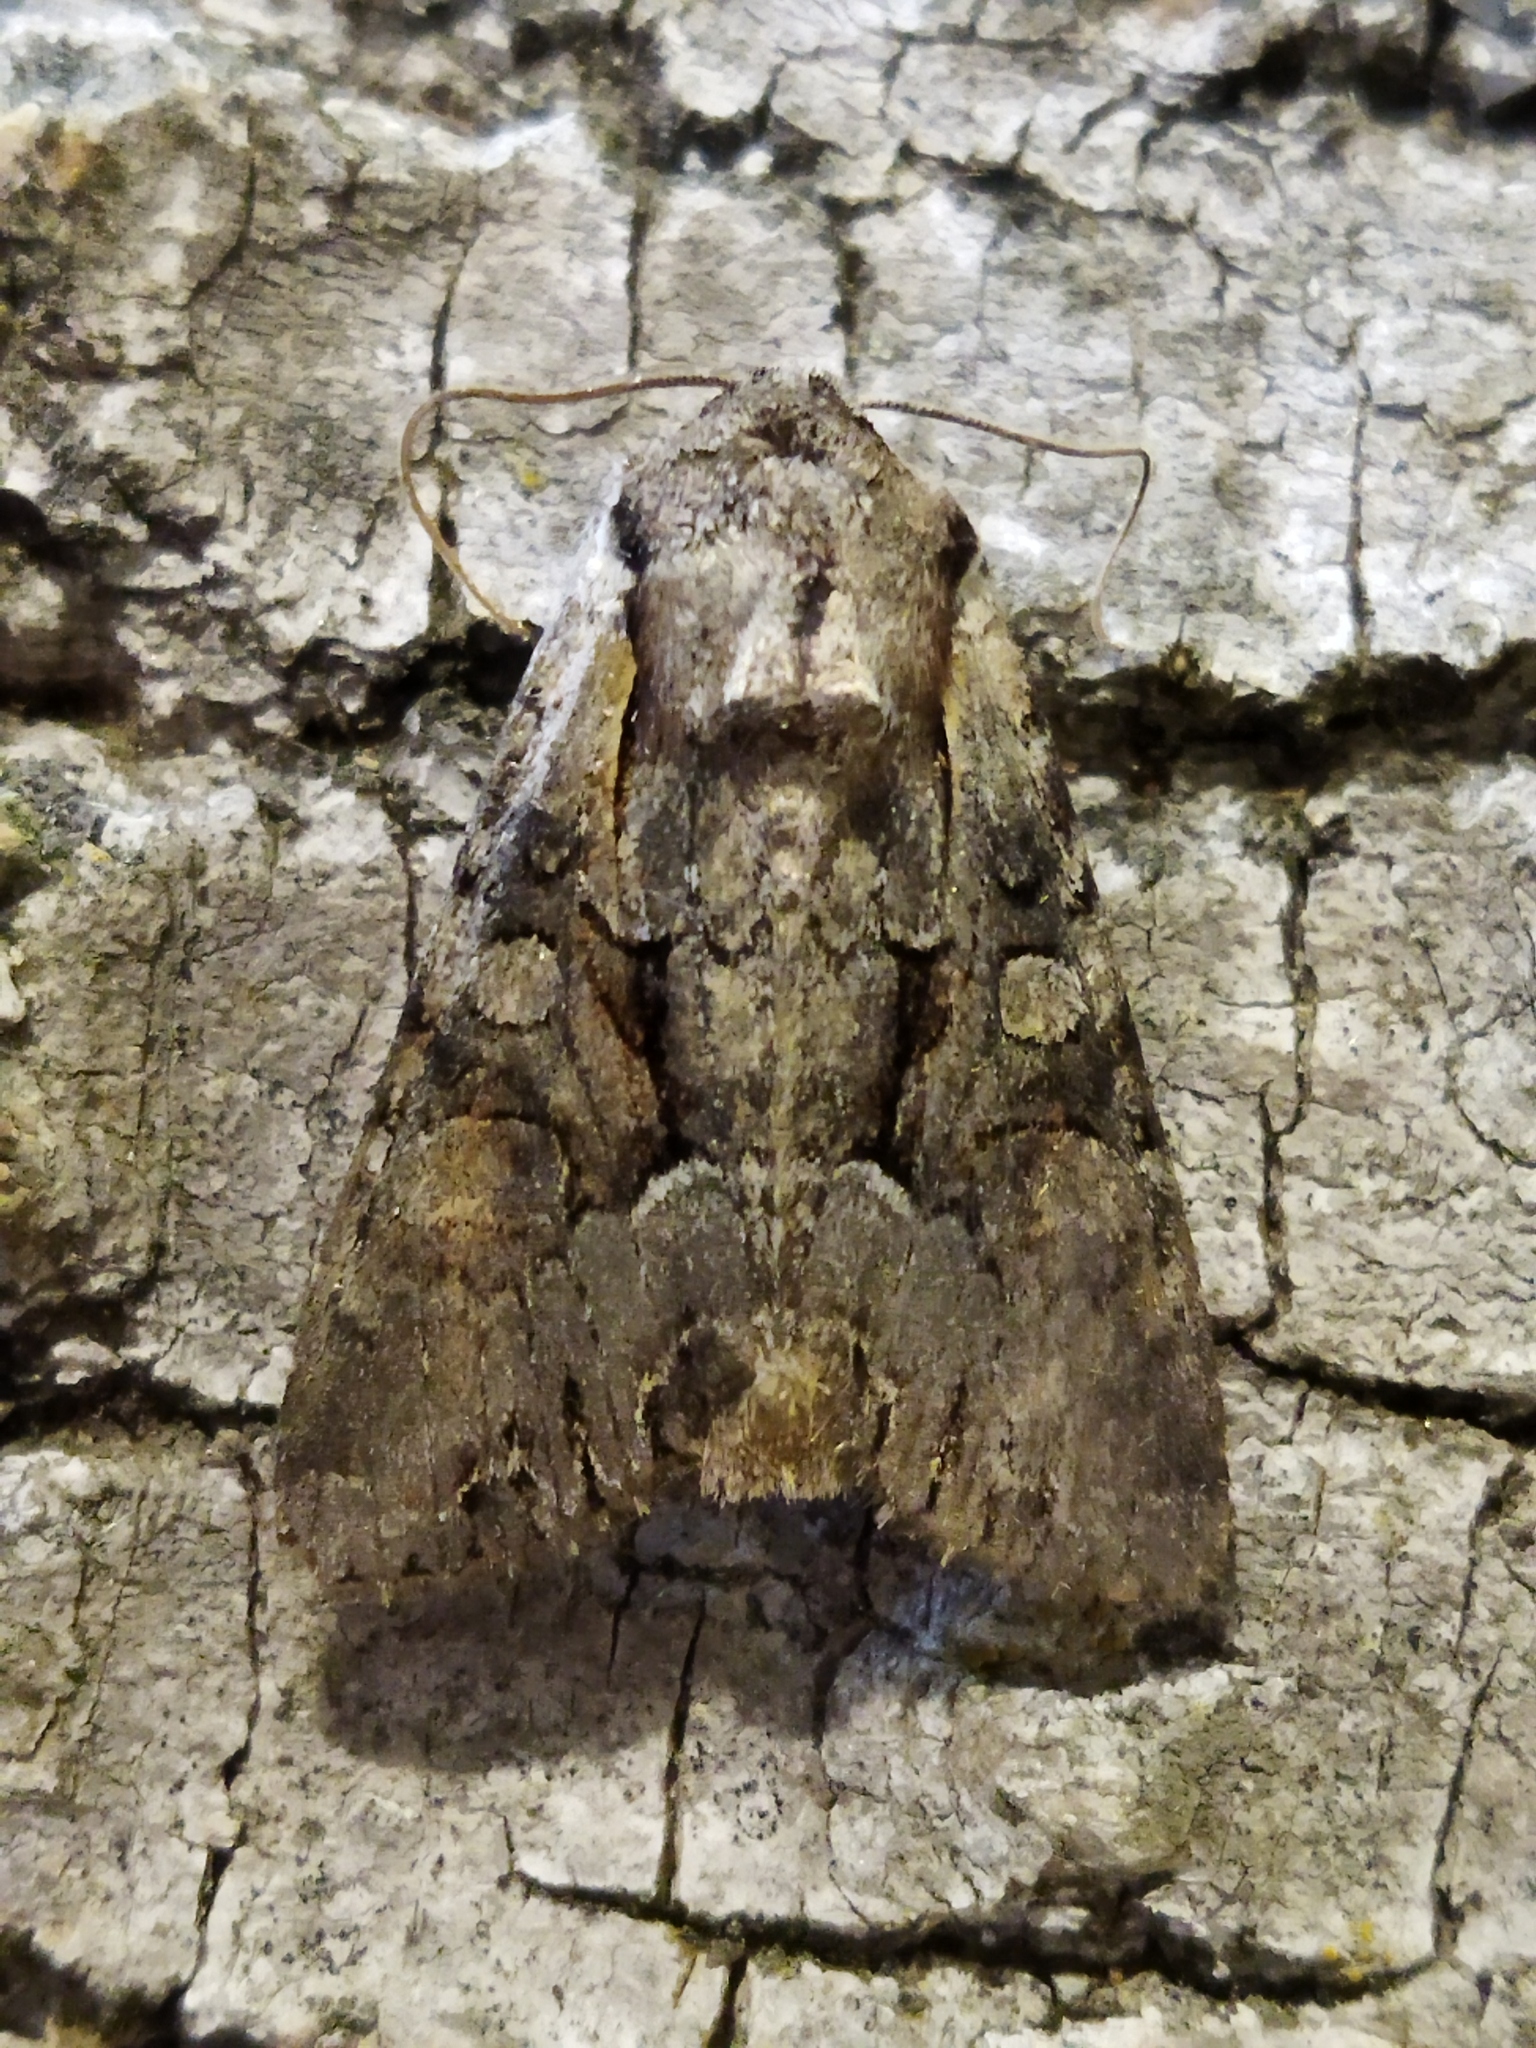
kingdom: Animalia
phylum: Arthropoda
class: Insecta
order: Lepidoptera
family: Noctuidae
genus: Lacanobia
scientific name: Lacanobia w-latinum
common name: Light brocade
